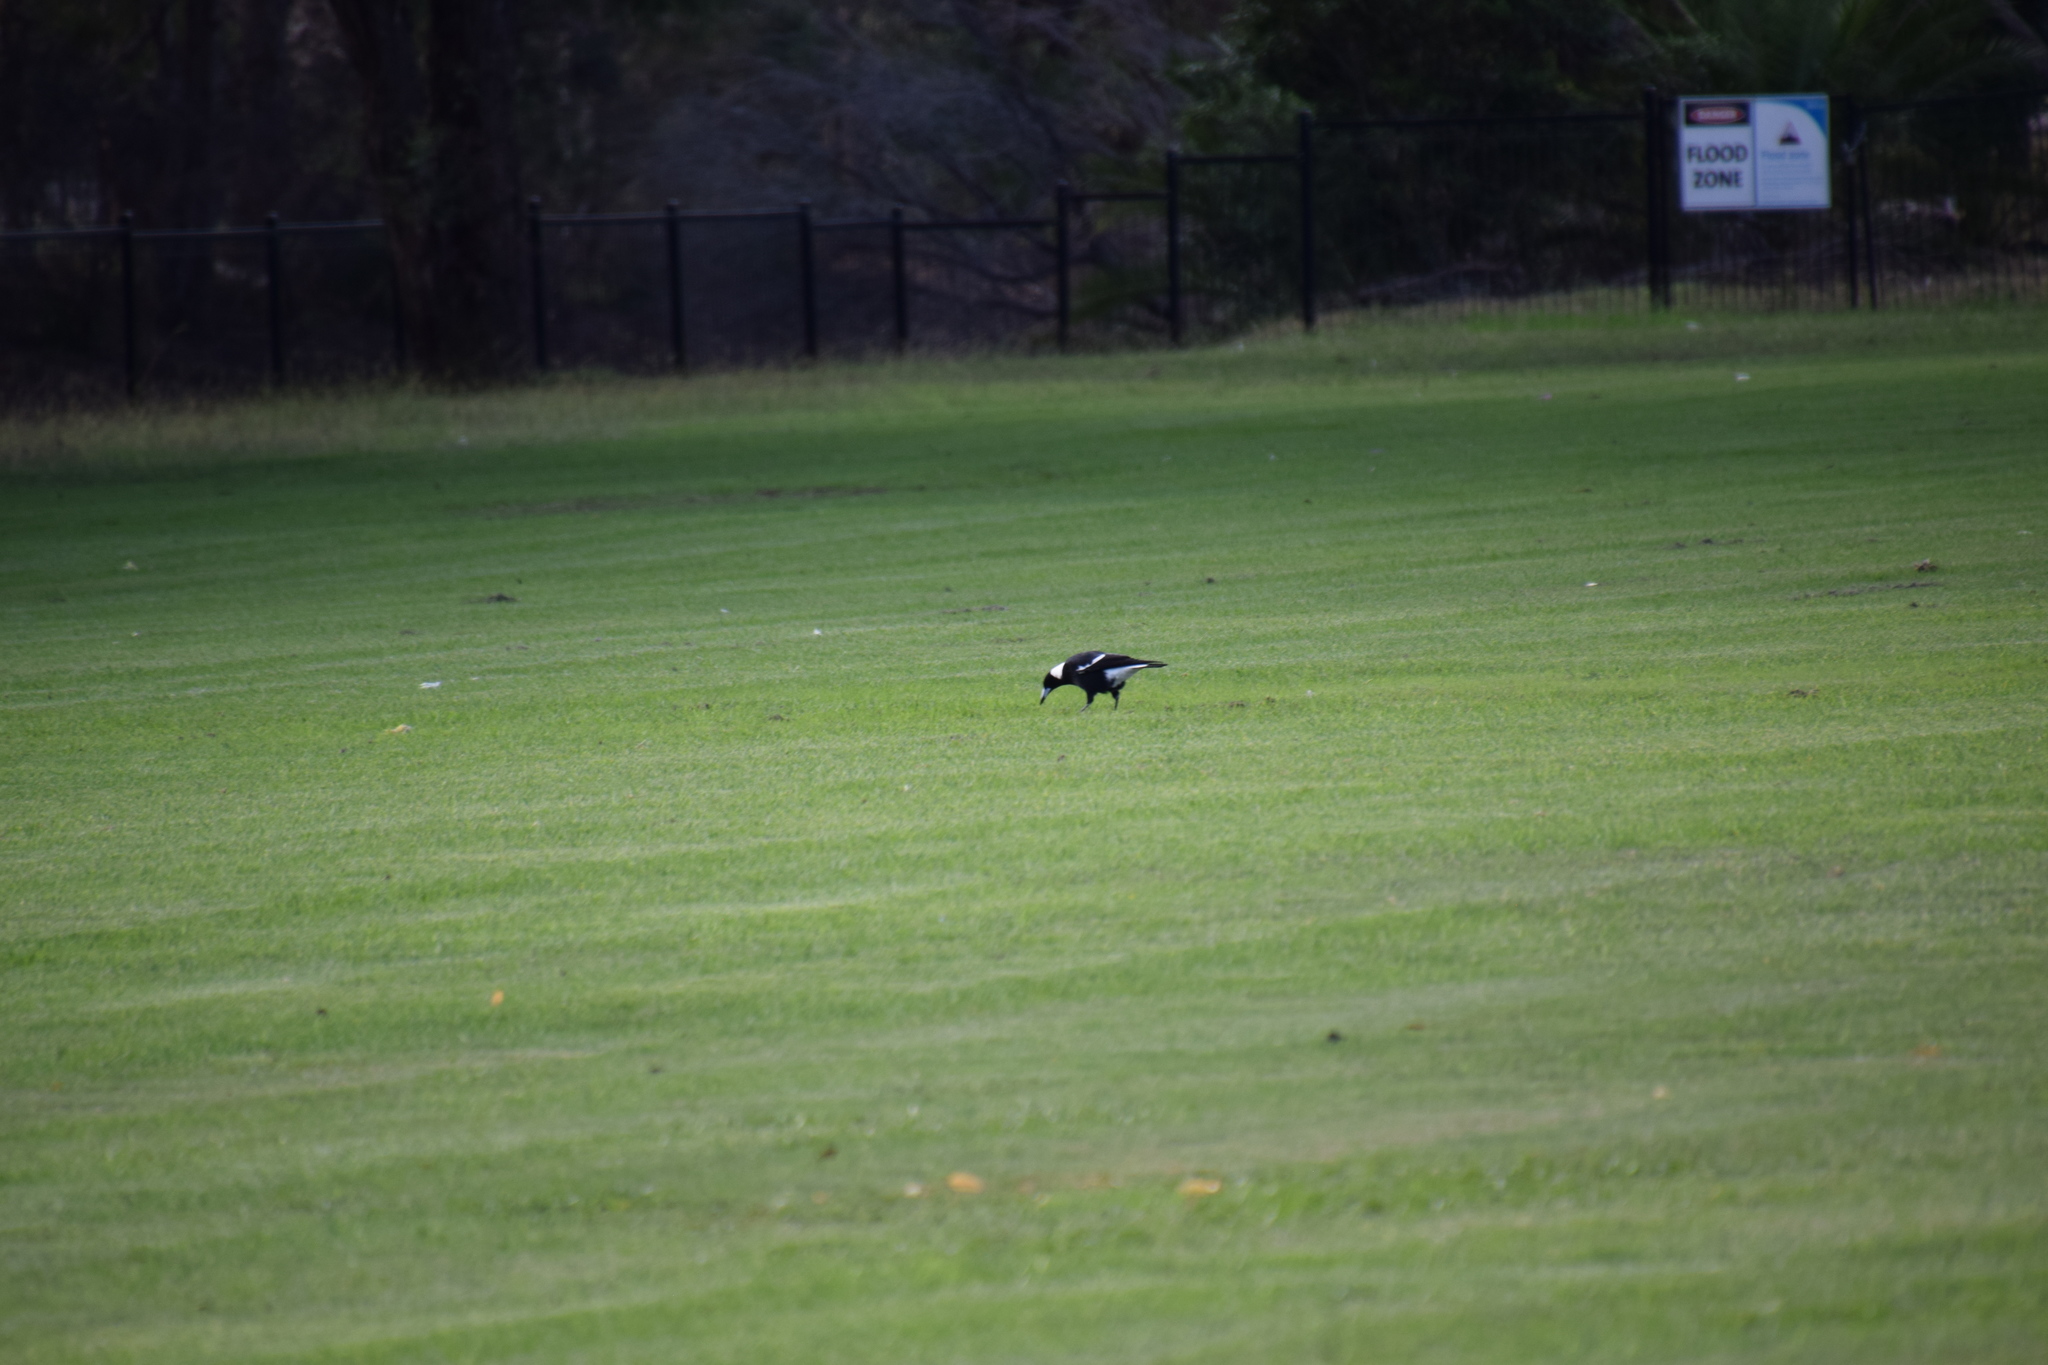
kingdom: Animalia
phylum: Chordata
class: Aves
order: Passeriformes
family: Cracticidae
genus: Gymnorhina
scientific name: Gymnorhina tibicen
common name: Australian magpie
